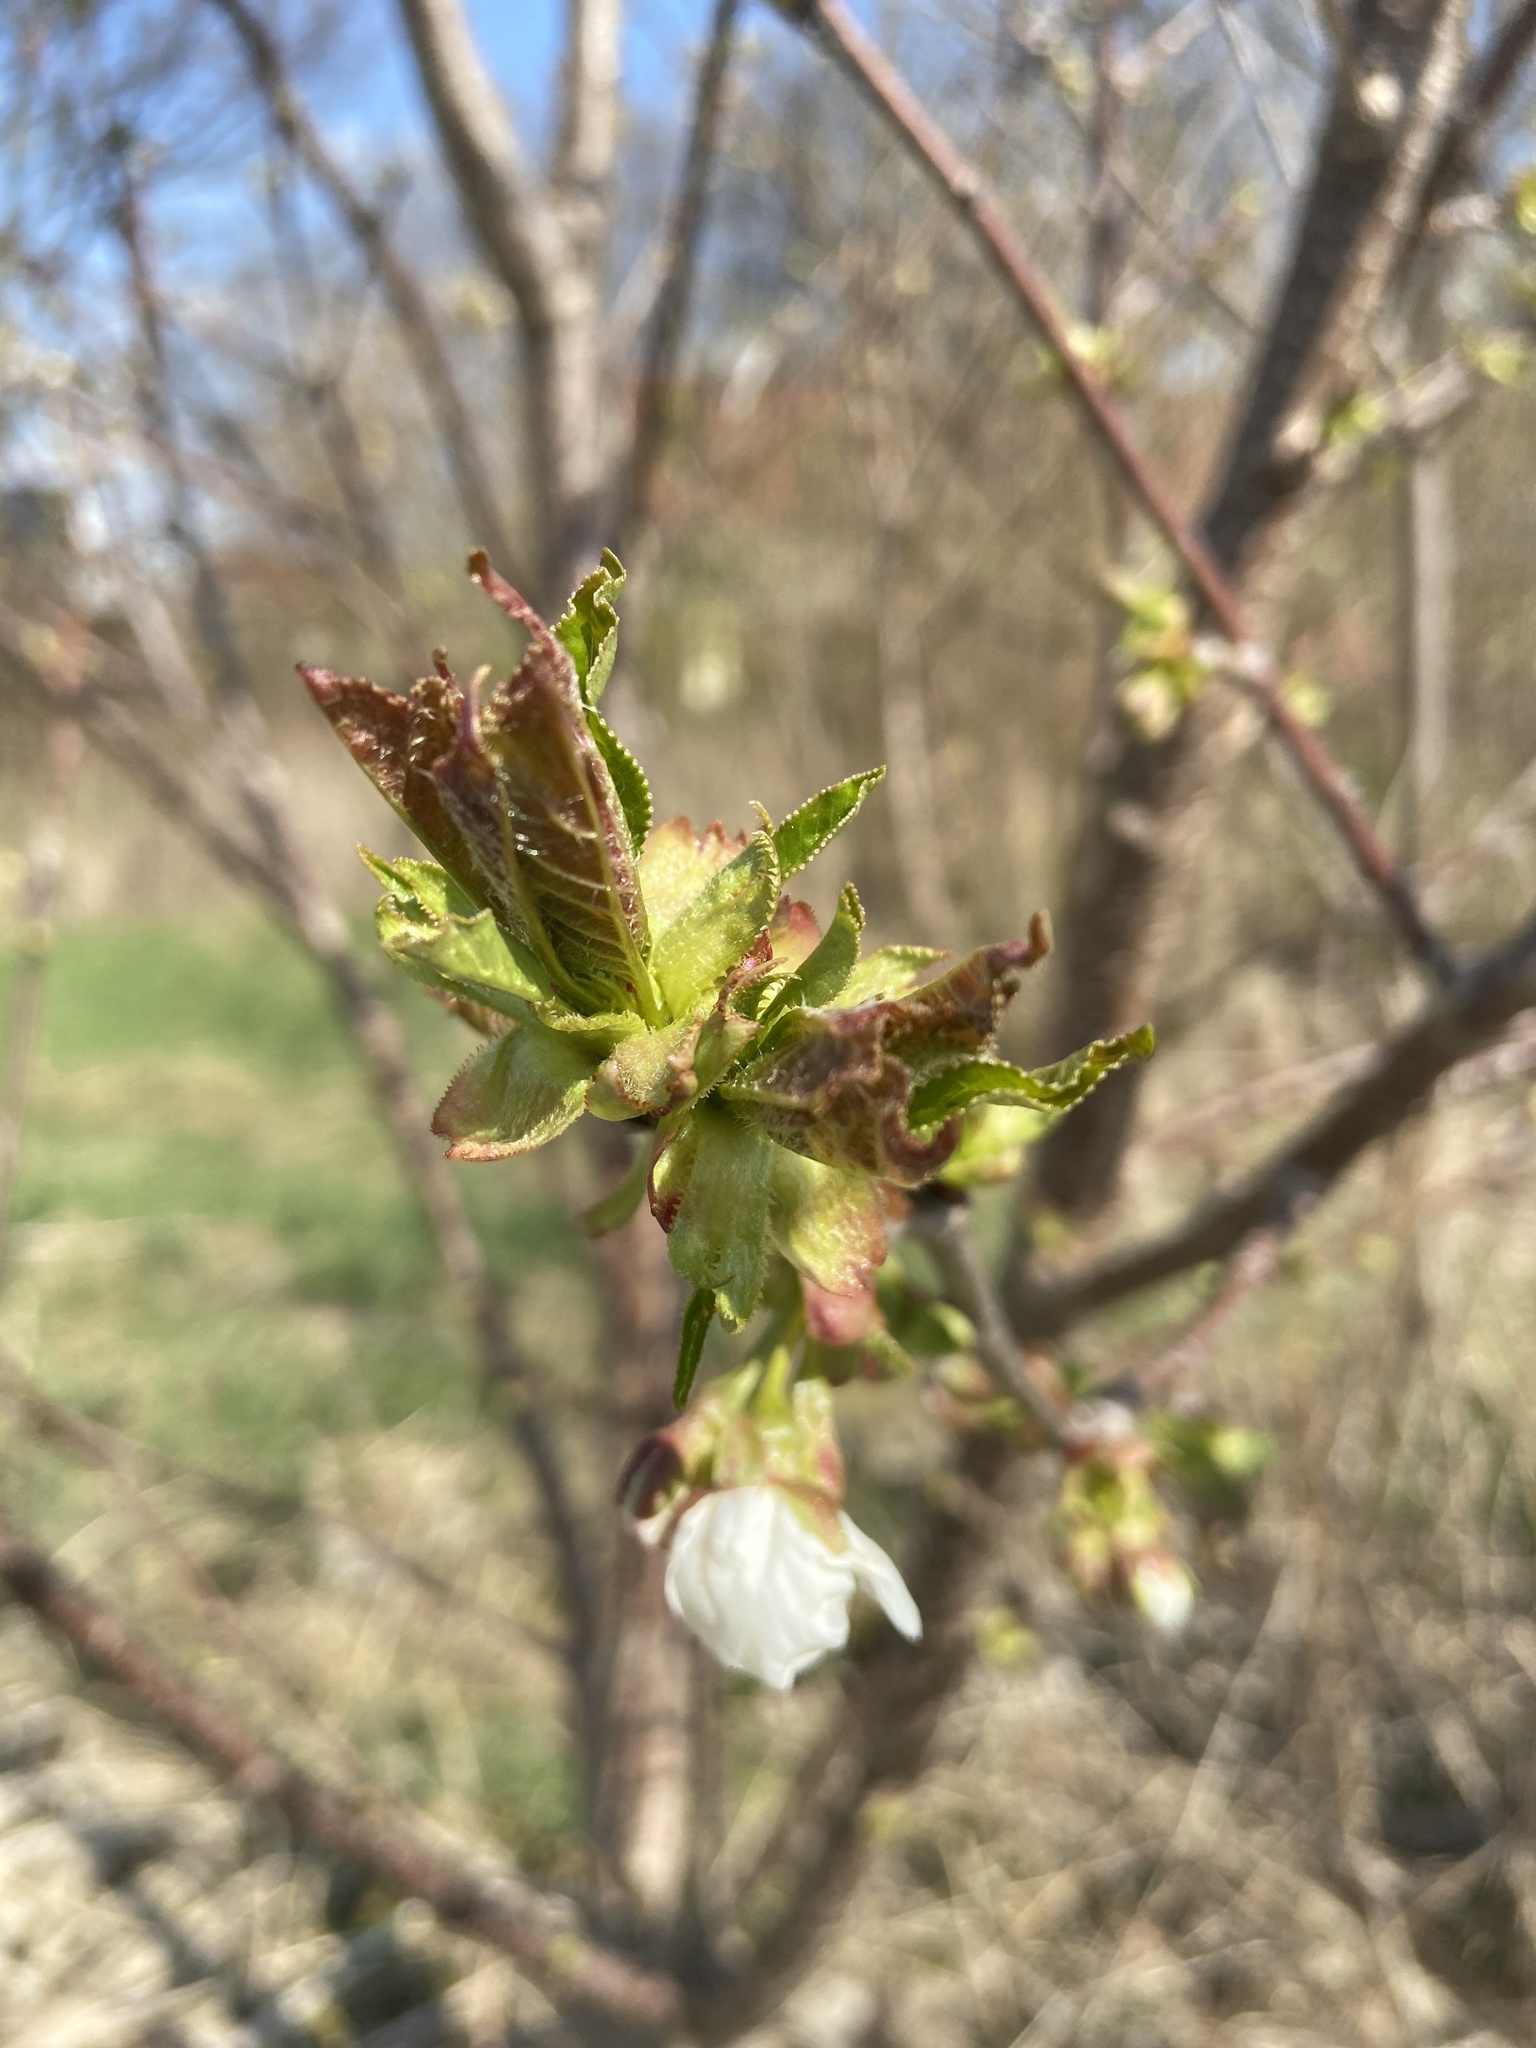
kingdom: Plantae
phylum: Tracheophyta
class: Magnoliopsida
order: Rosales
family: Rosaceae
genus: Prunus
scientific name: Prunus avium
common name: Sweet cherry
